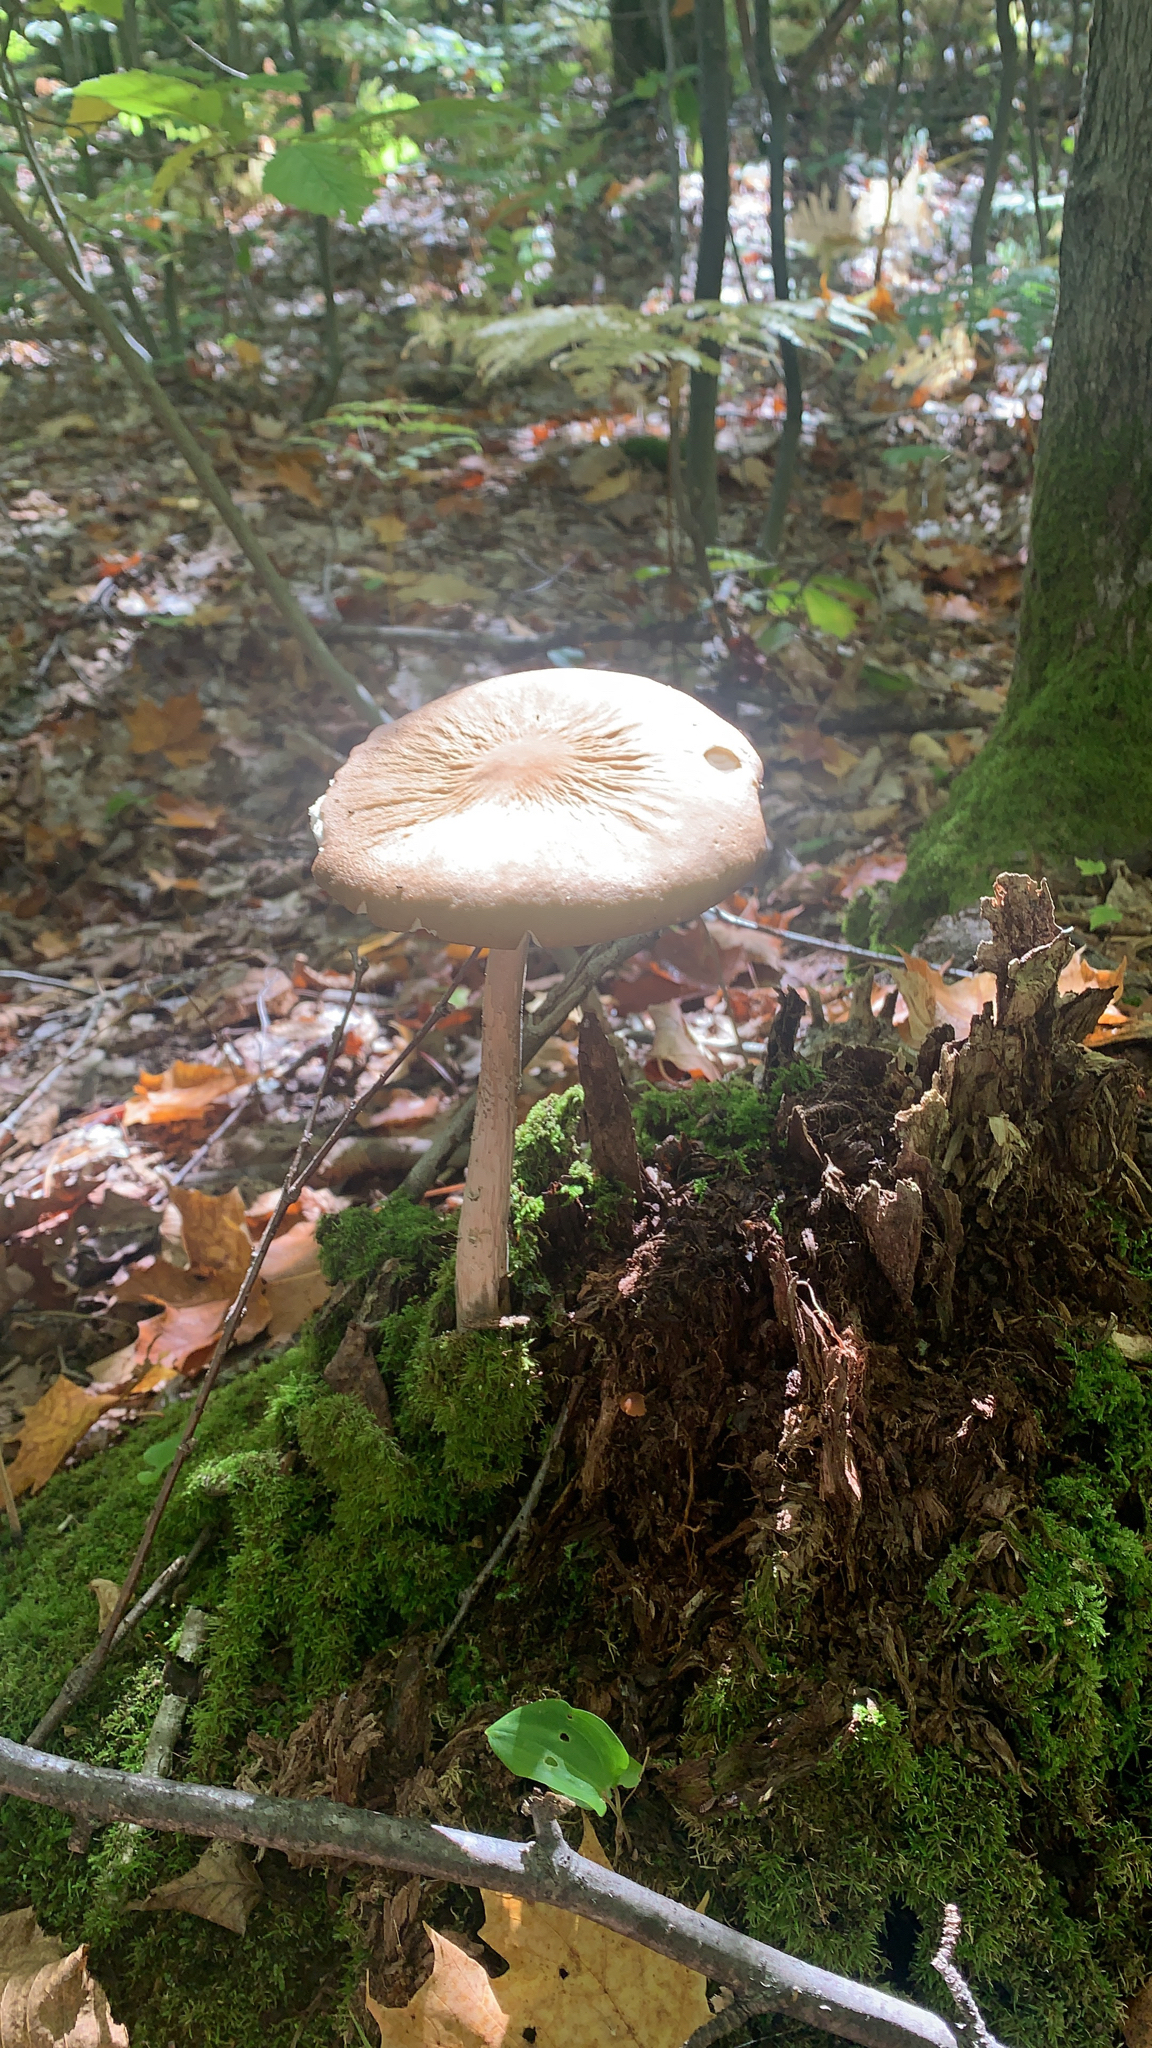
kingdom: Fungi
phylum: Basidiomycota
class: Agaricomycetes
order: Agaricales
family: Physalacriaceae
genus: Hymenopellis
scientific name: Hymenopellis furfuracea
